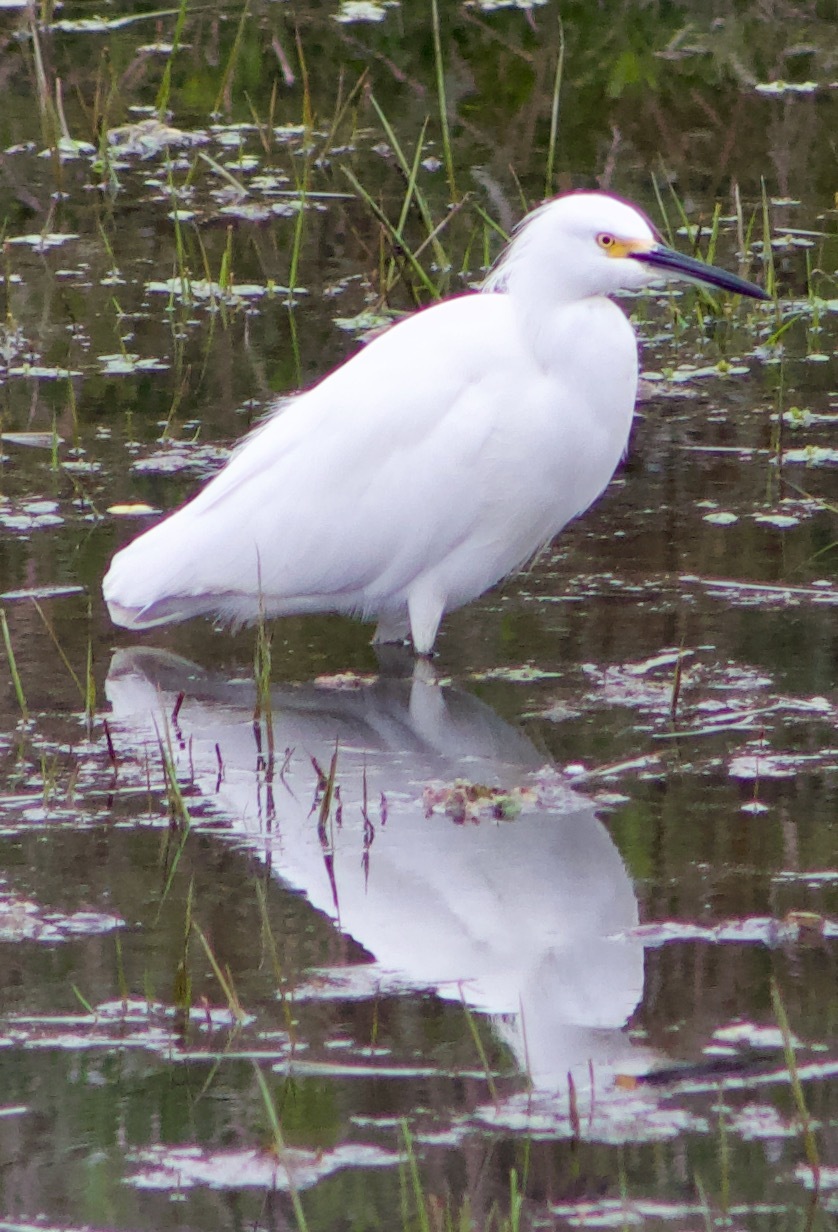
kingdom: Animalia
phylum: Chordata
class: Aves
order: Pelecaniformes
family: Ardeidae
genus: Egretta
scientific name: Egretta thula
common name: Snowy egret
